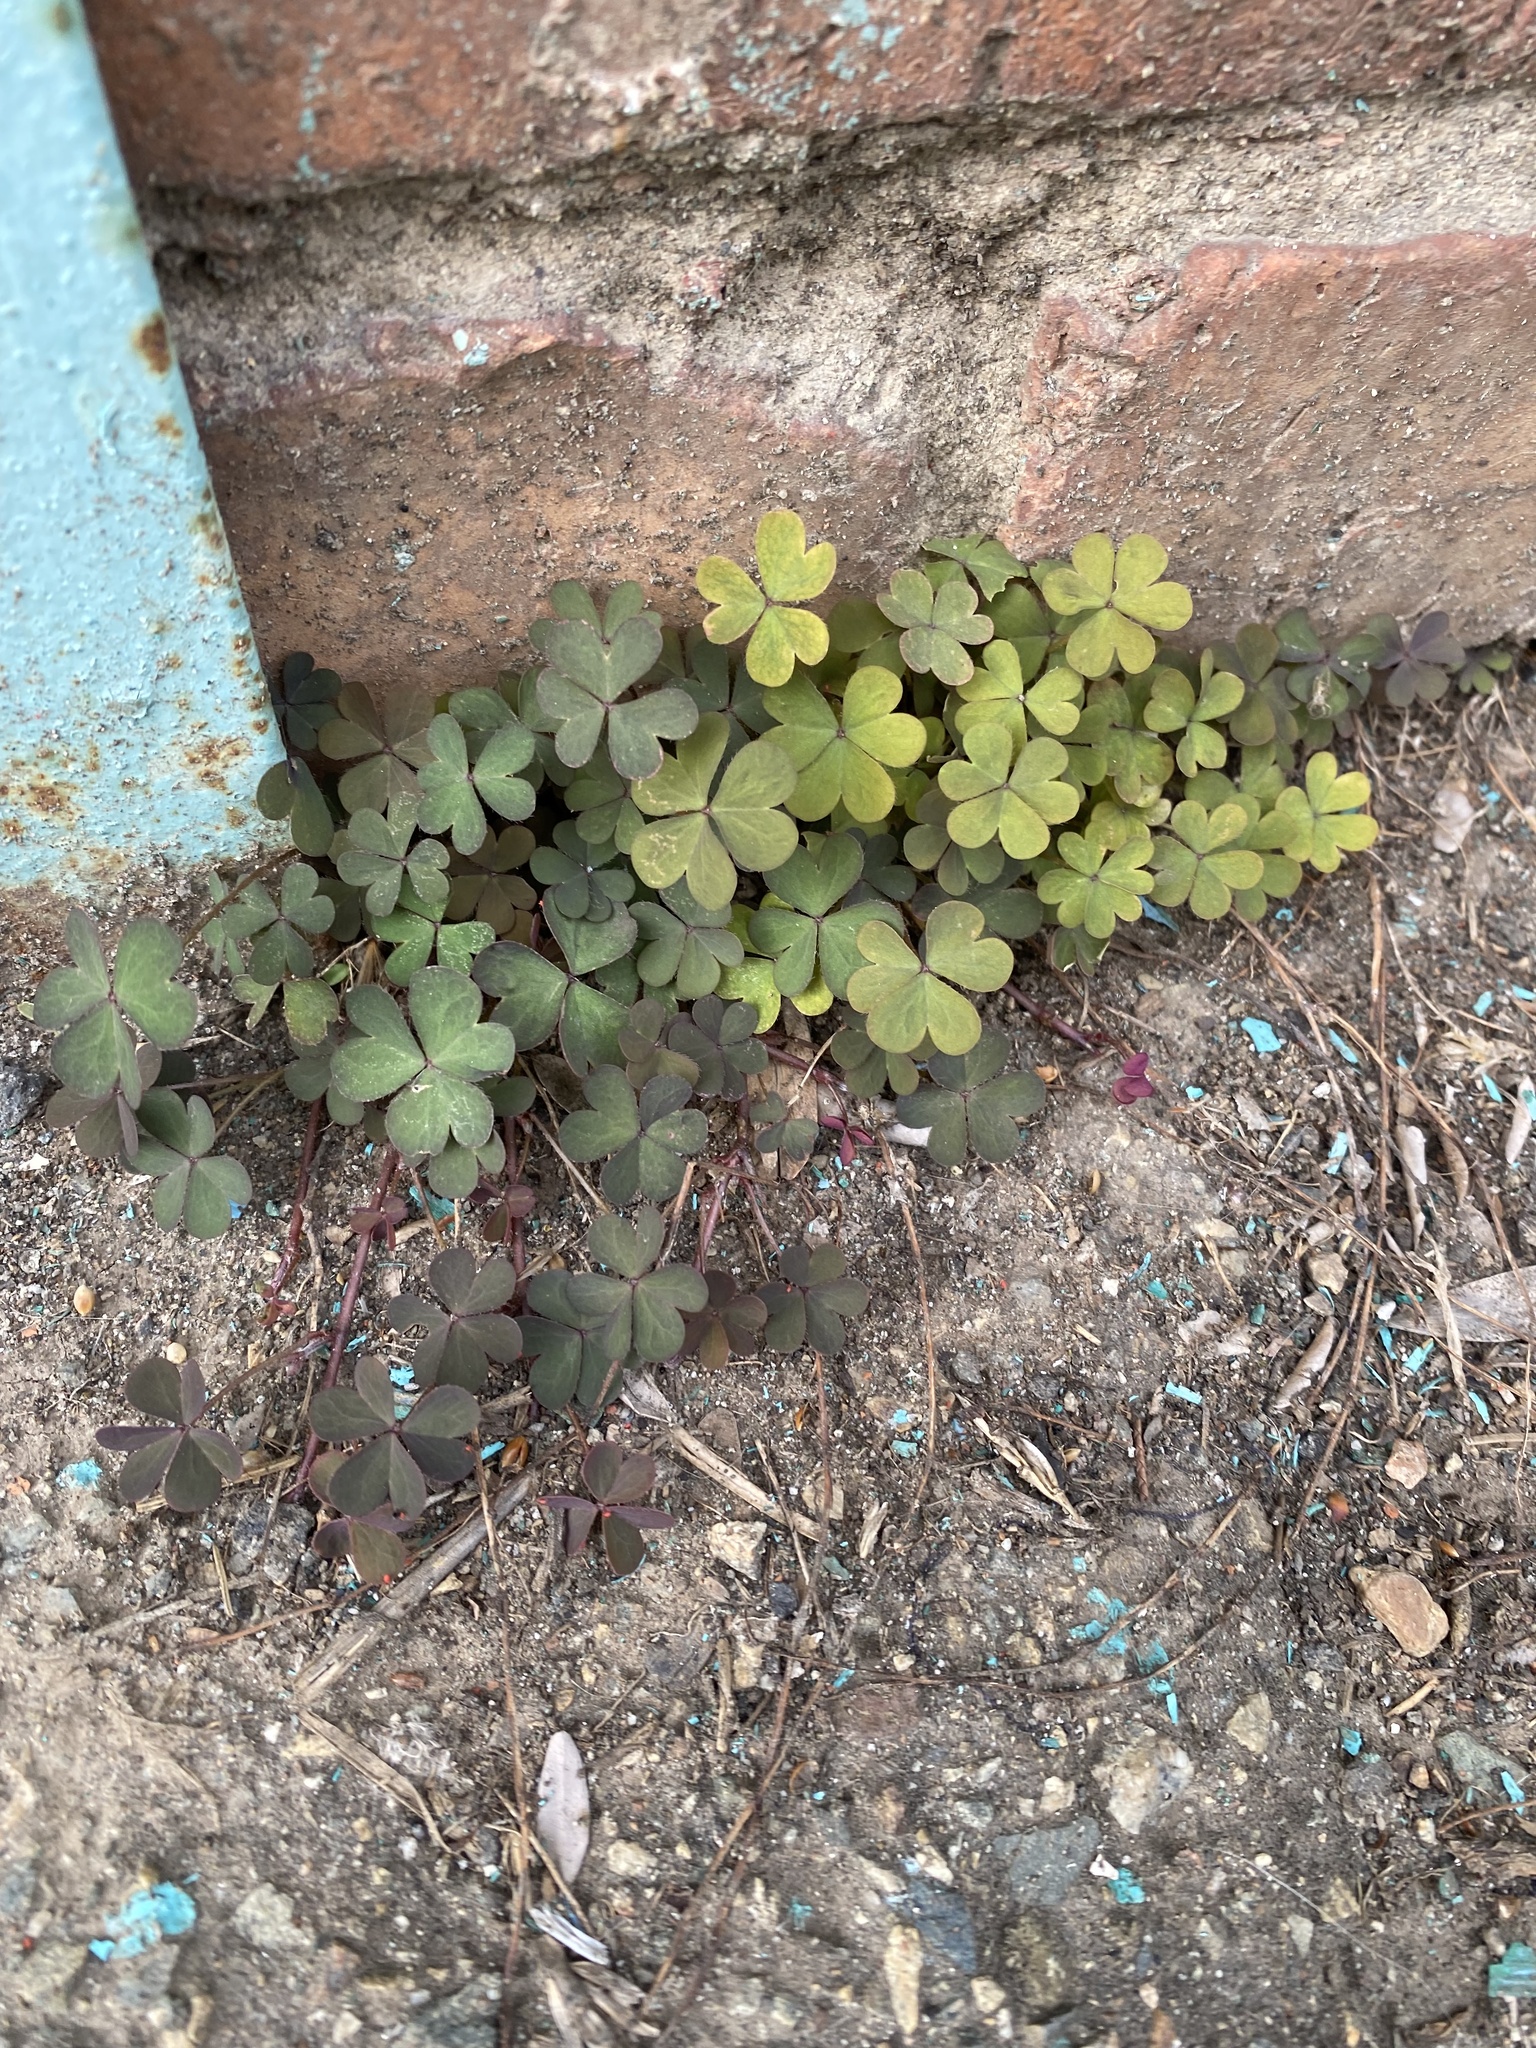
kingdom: Plantae
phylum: Tracheophyta
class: Magnoliopsida
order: Oxalidales
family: Oxalidaceae
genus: Oxalis
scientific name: Oxalis corniculata
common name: Procumbent yellow-sorrel
